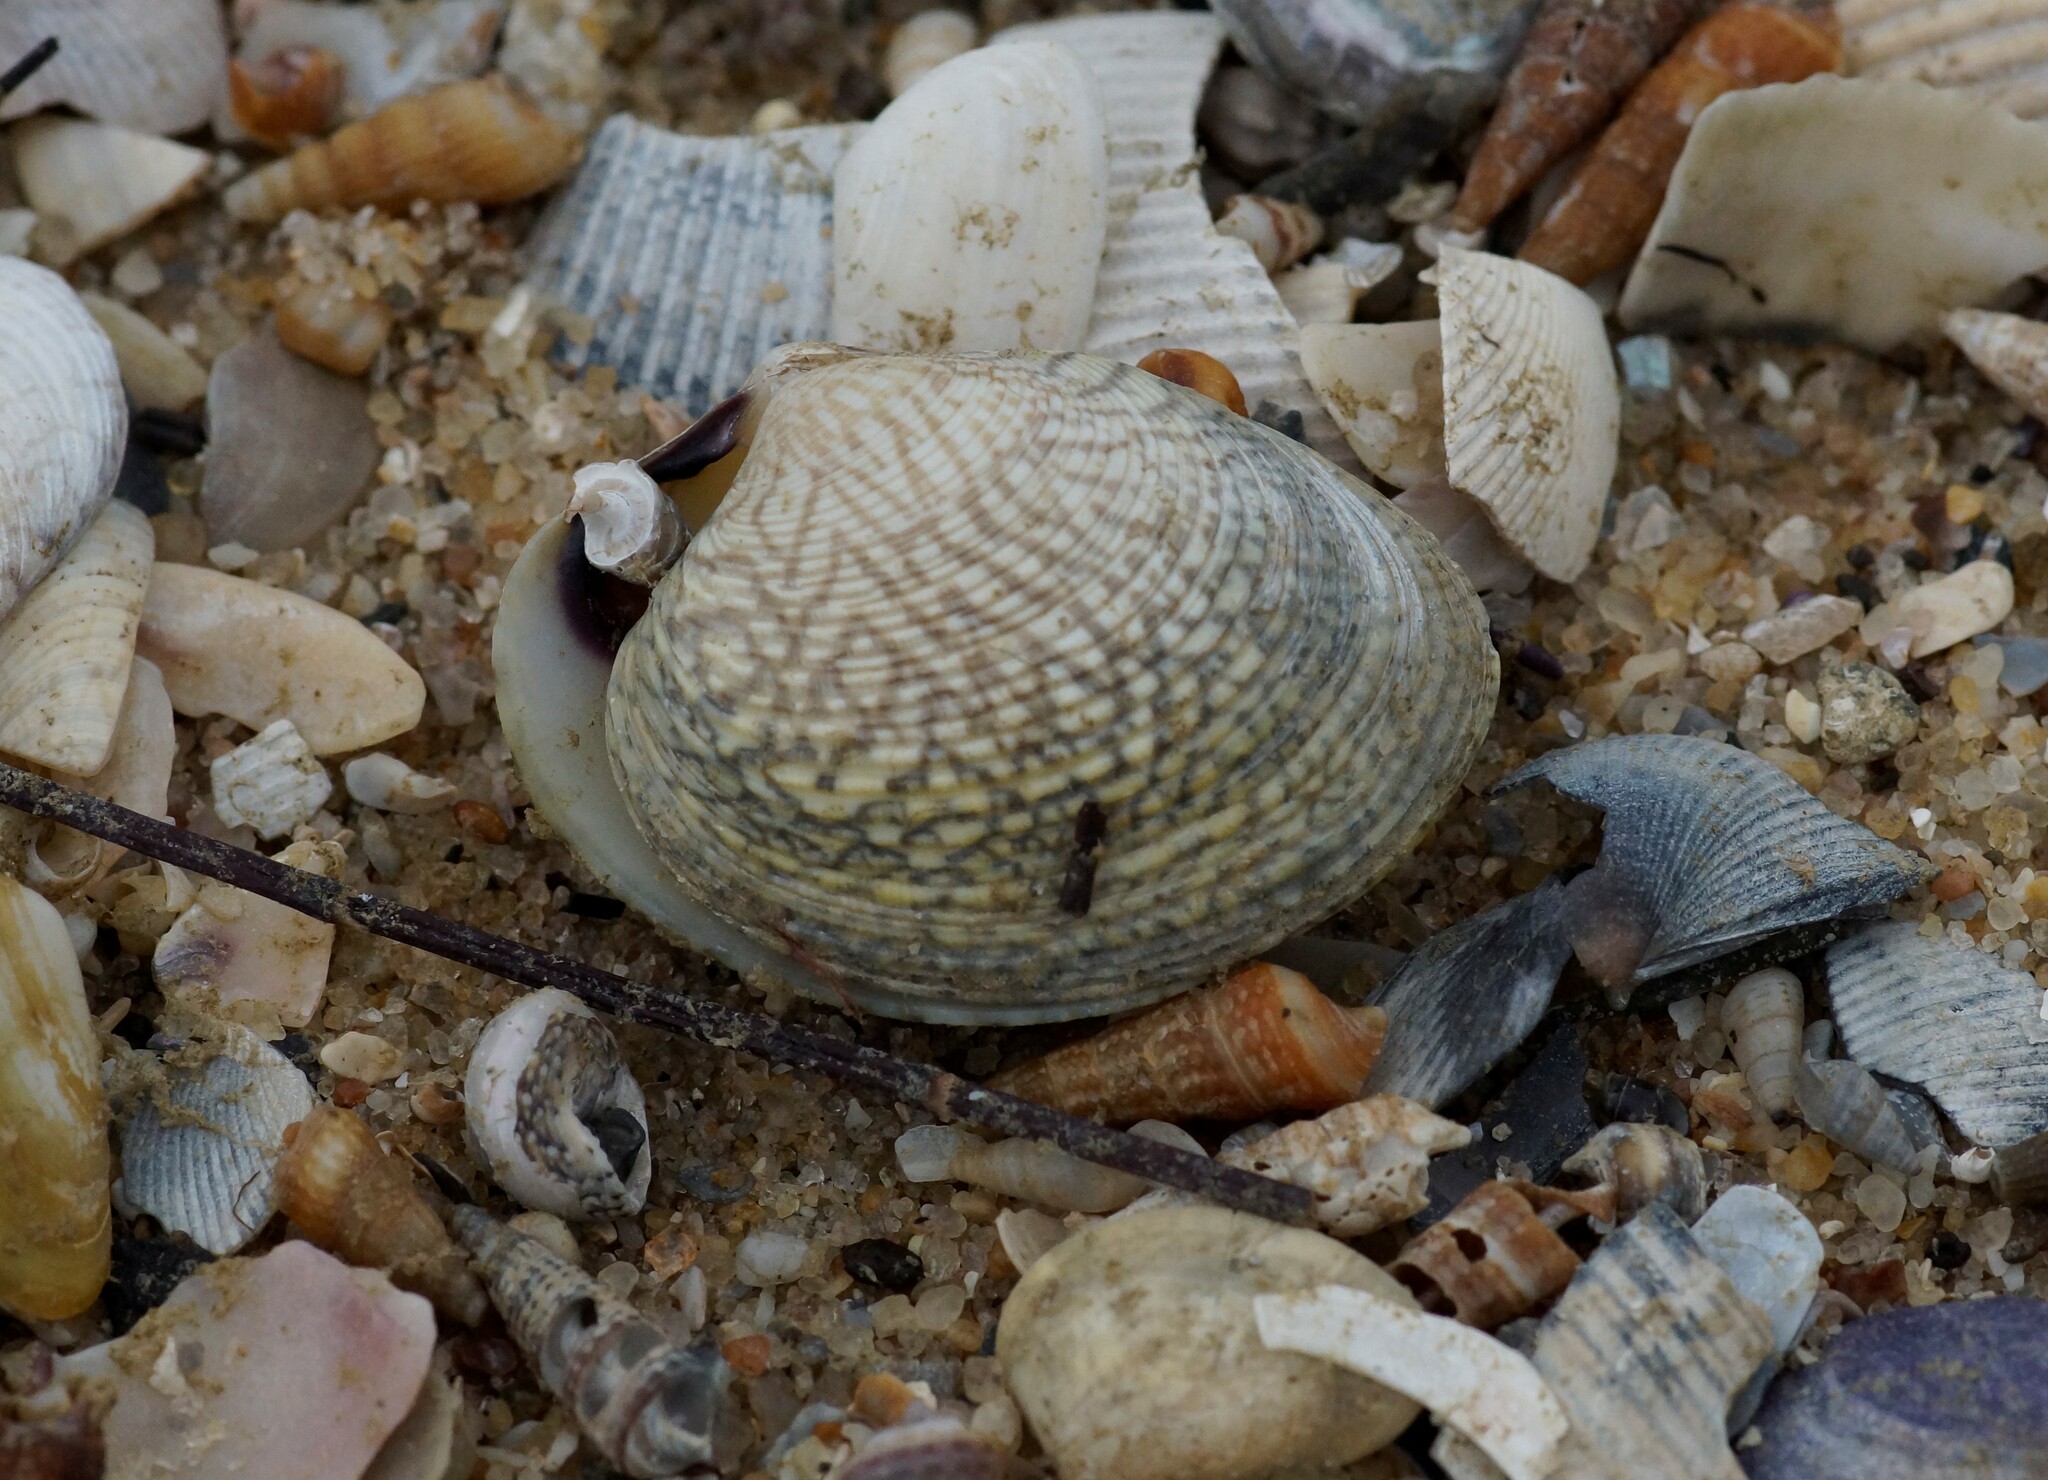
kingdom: Animalia
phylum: Mollusca
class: Bivalvia
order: Venerida
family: Veneridae
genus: Katelysia
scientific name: Katelysia rhytiphora
